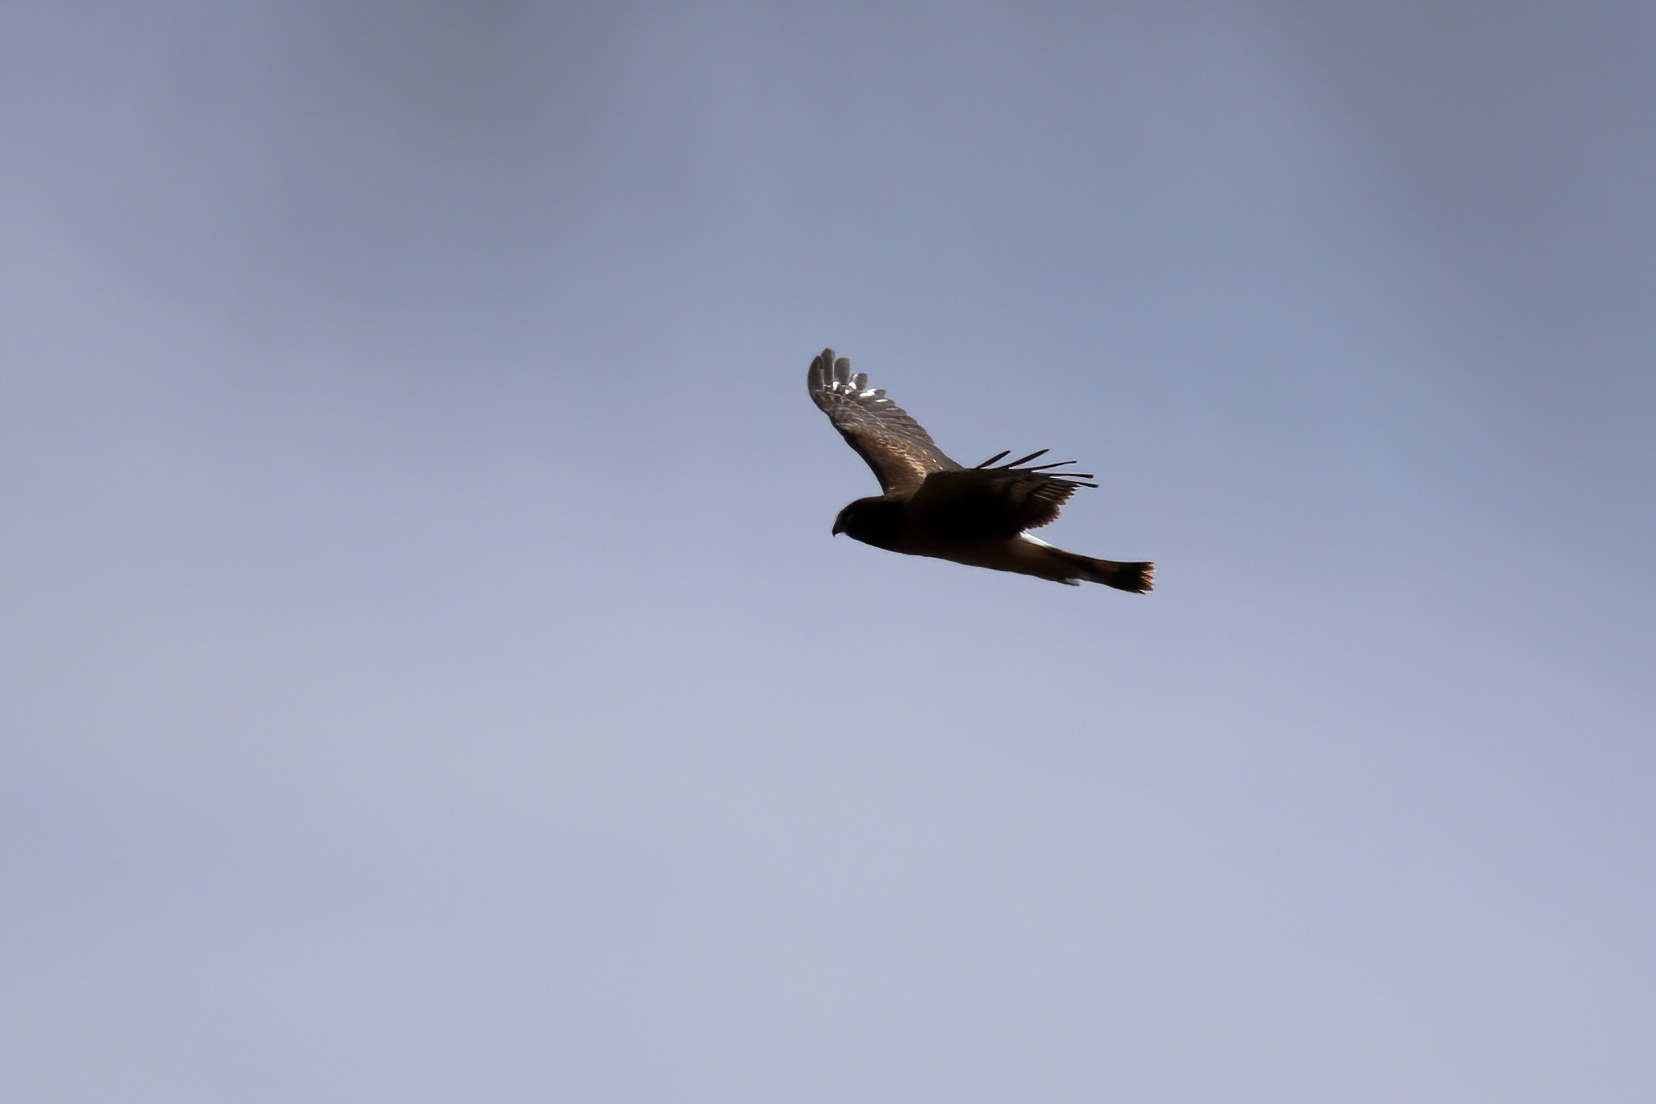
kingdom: Animalia
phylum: Chordata
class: Aves
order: Accipitriformes
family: Accipitridae
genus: Circus
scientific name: Circus cyaneus
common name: Hen harrier
